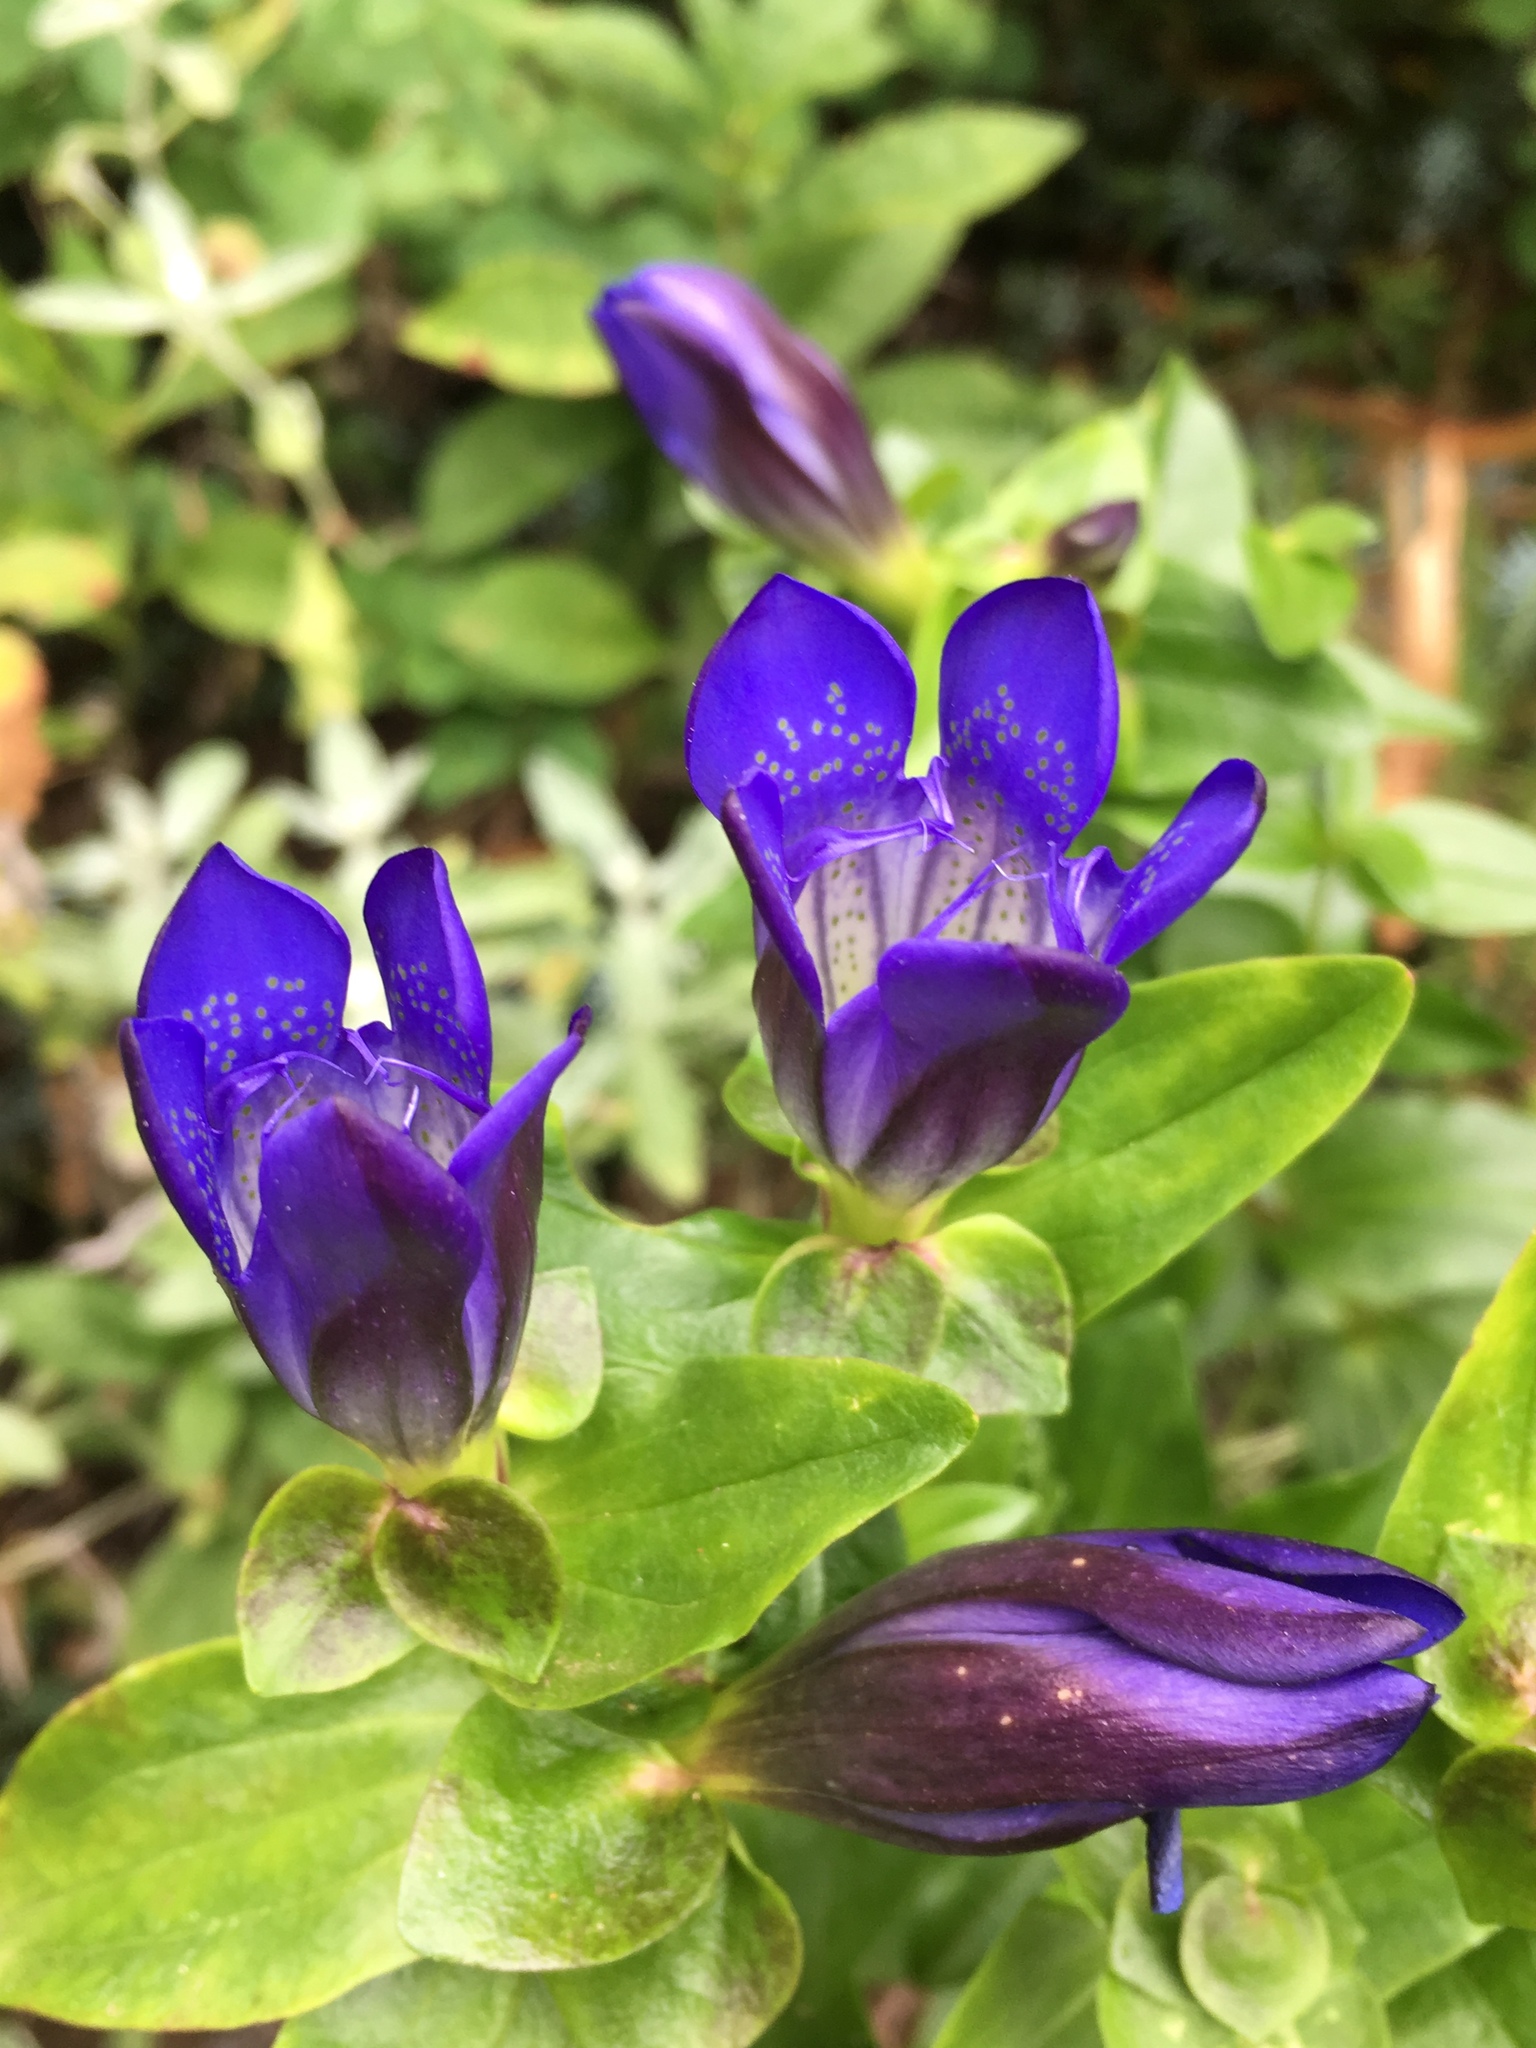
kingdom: Plantae
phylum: Tracheophyta
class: Magnoliopsida
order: Gentianales
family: Gentianaceae
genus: Gentiana
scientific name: Gentiana calycosa
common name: Rainier pleated gentian
